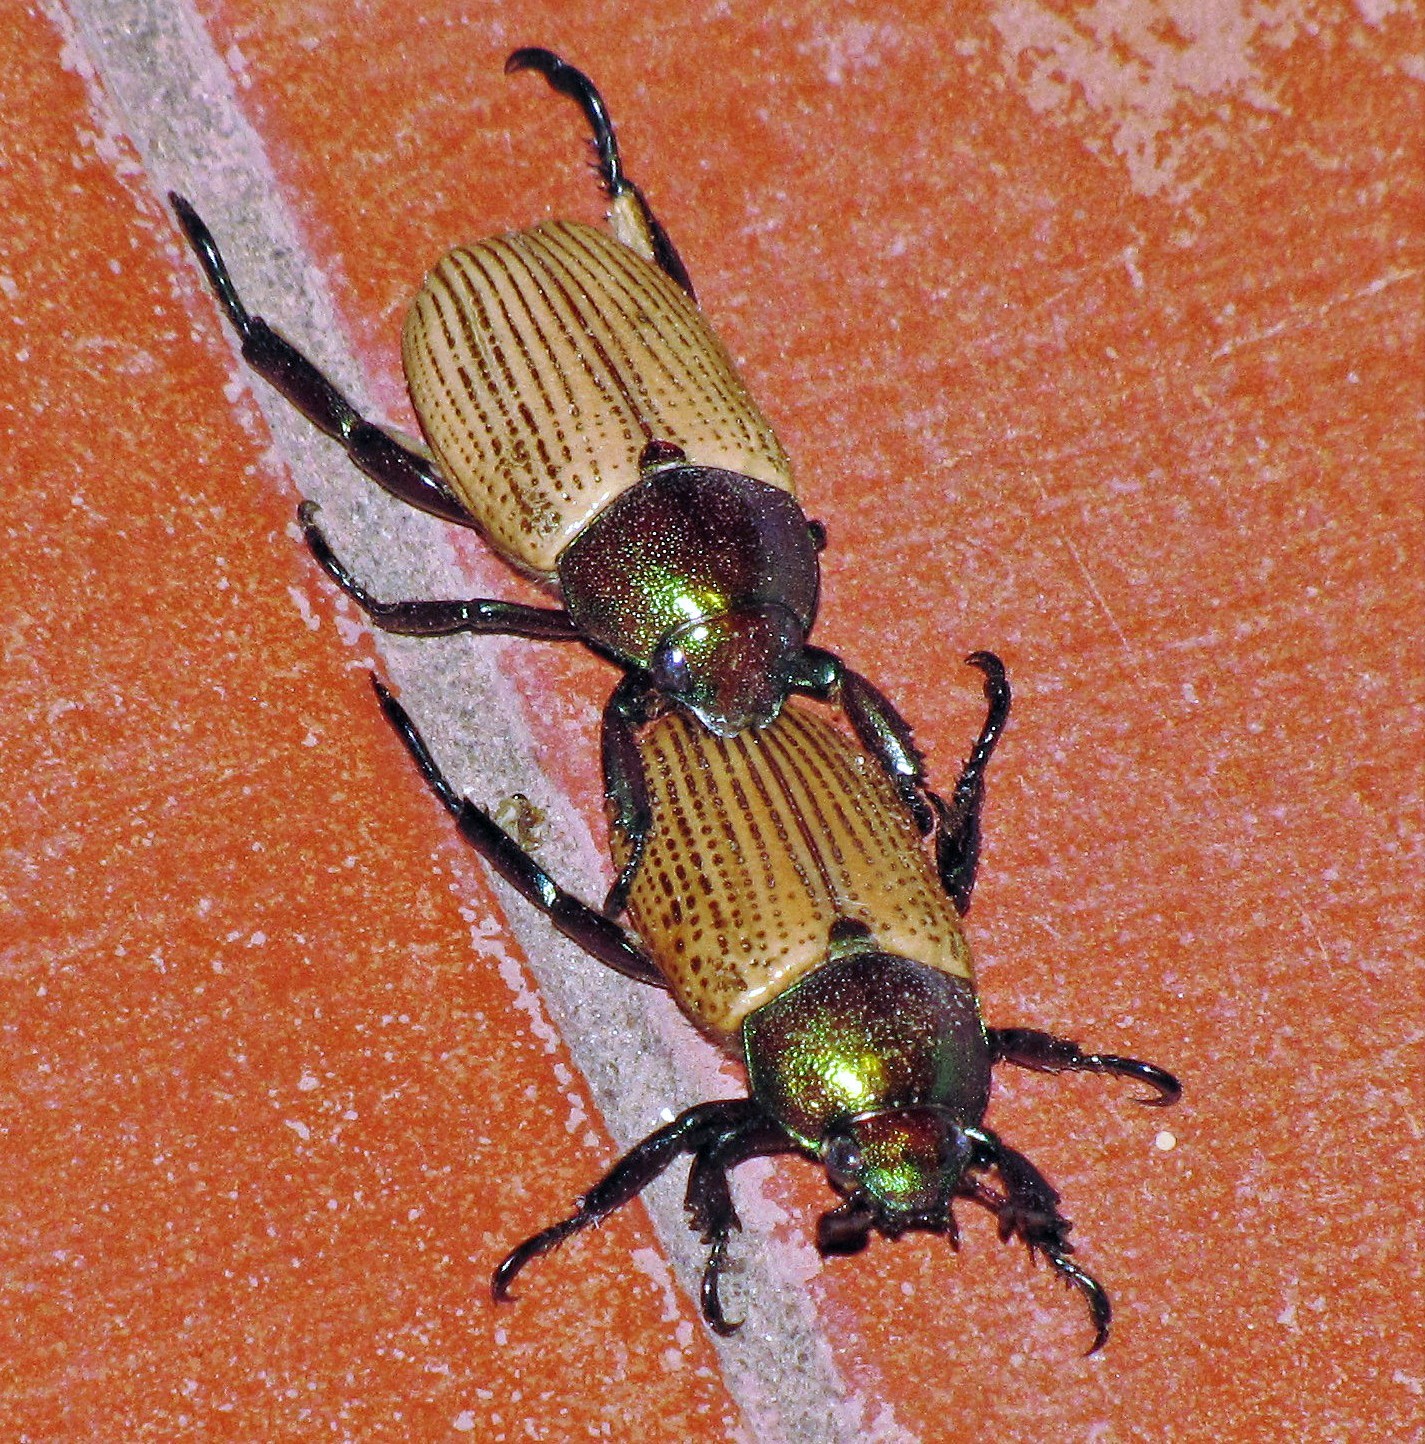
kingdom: Animalia
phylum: Arthropoda
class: Insecta
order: Coleoptera
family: Scarabaeidae
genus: Epichalcoplethis
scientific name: Epichalcoplethis sanctijacobi
